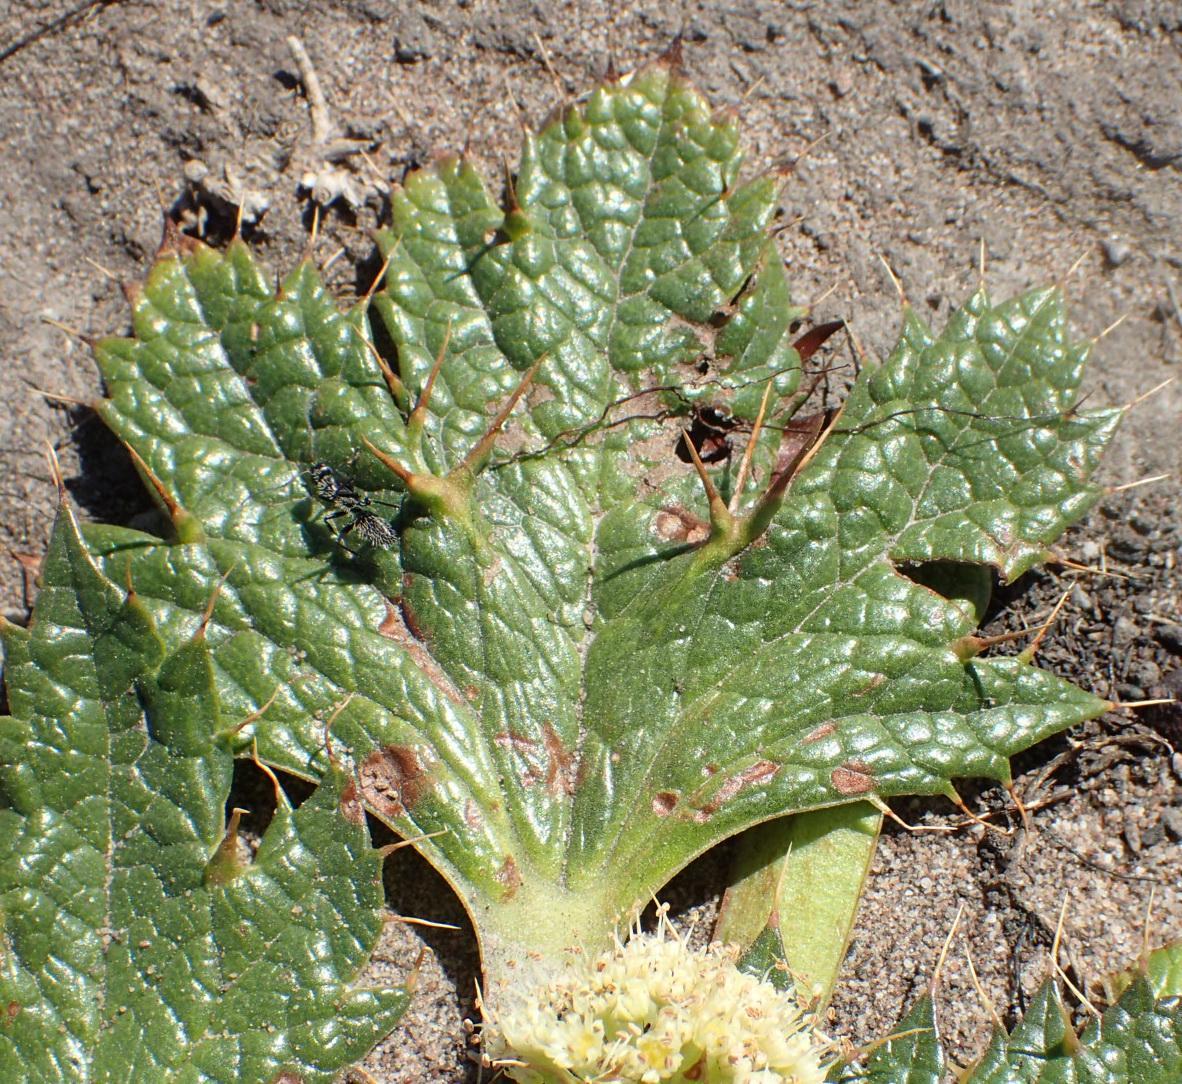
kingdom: Plantae
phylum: Tracheophyta
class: Magnoliopsida
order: Apiales
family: Apiaceae
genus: Arctopus
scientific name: Arctopus echinatus
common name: Platdoring
